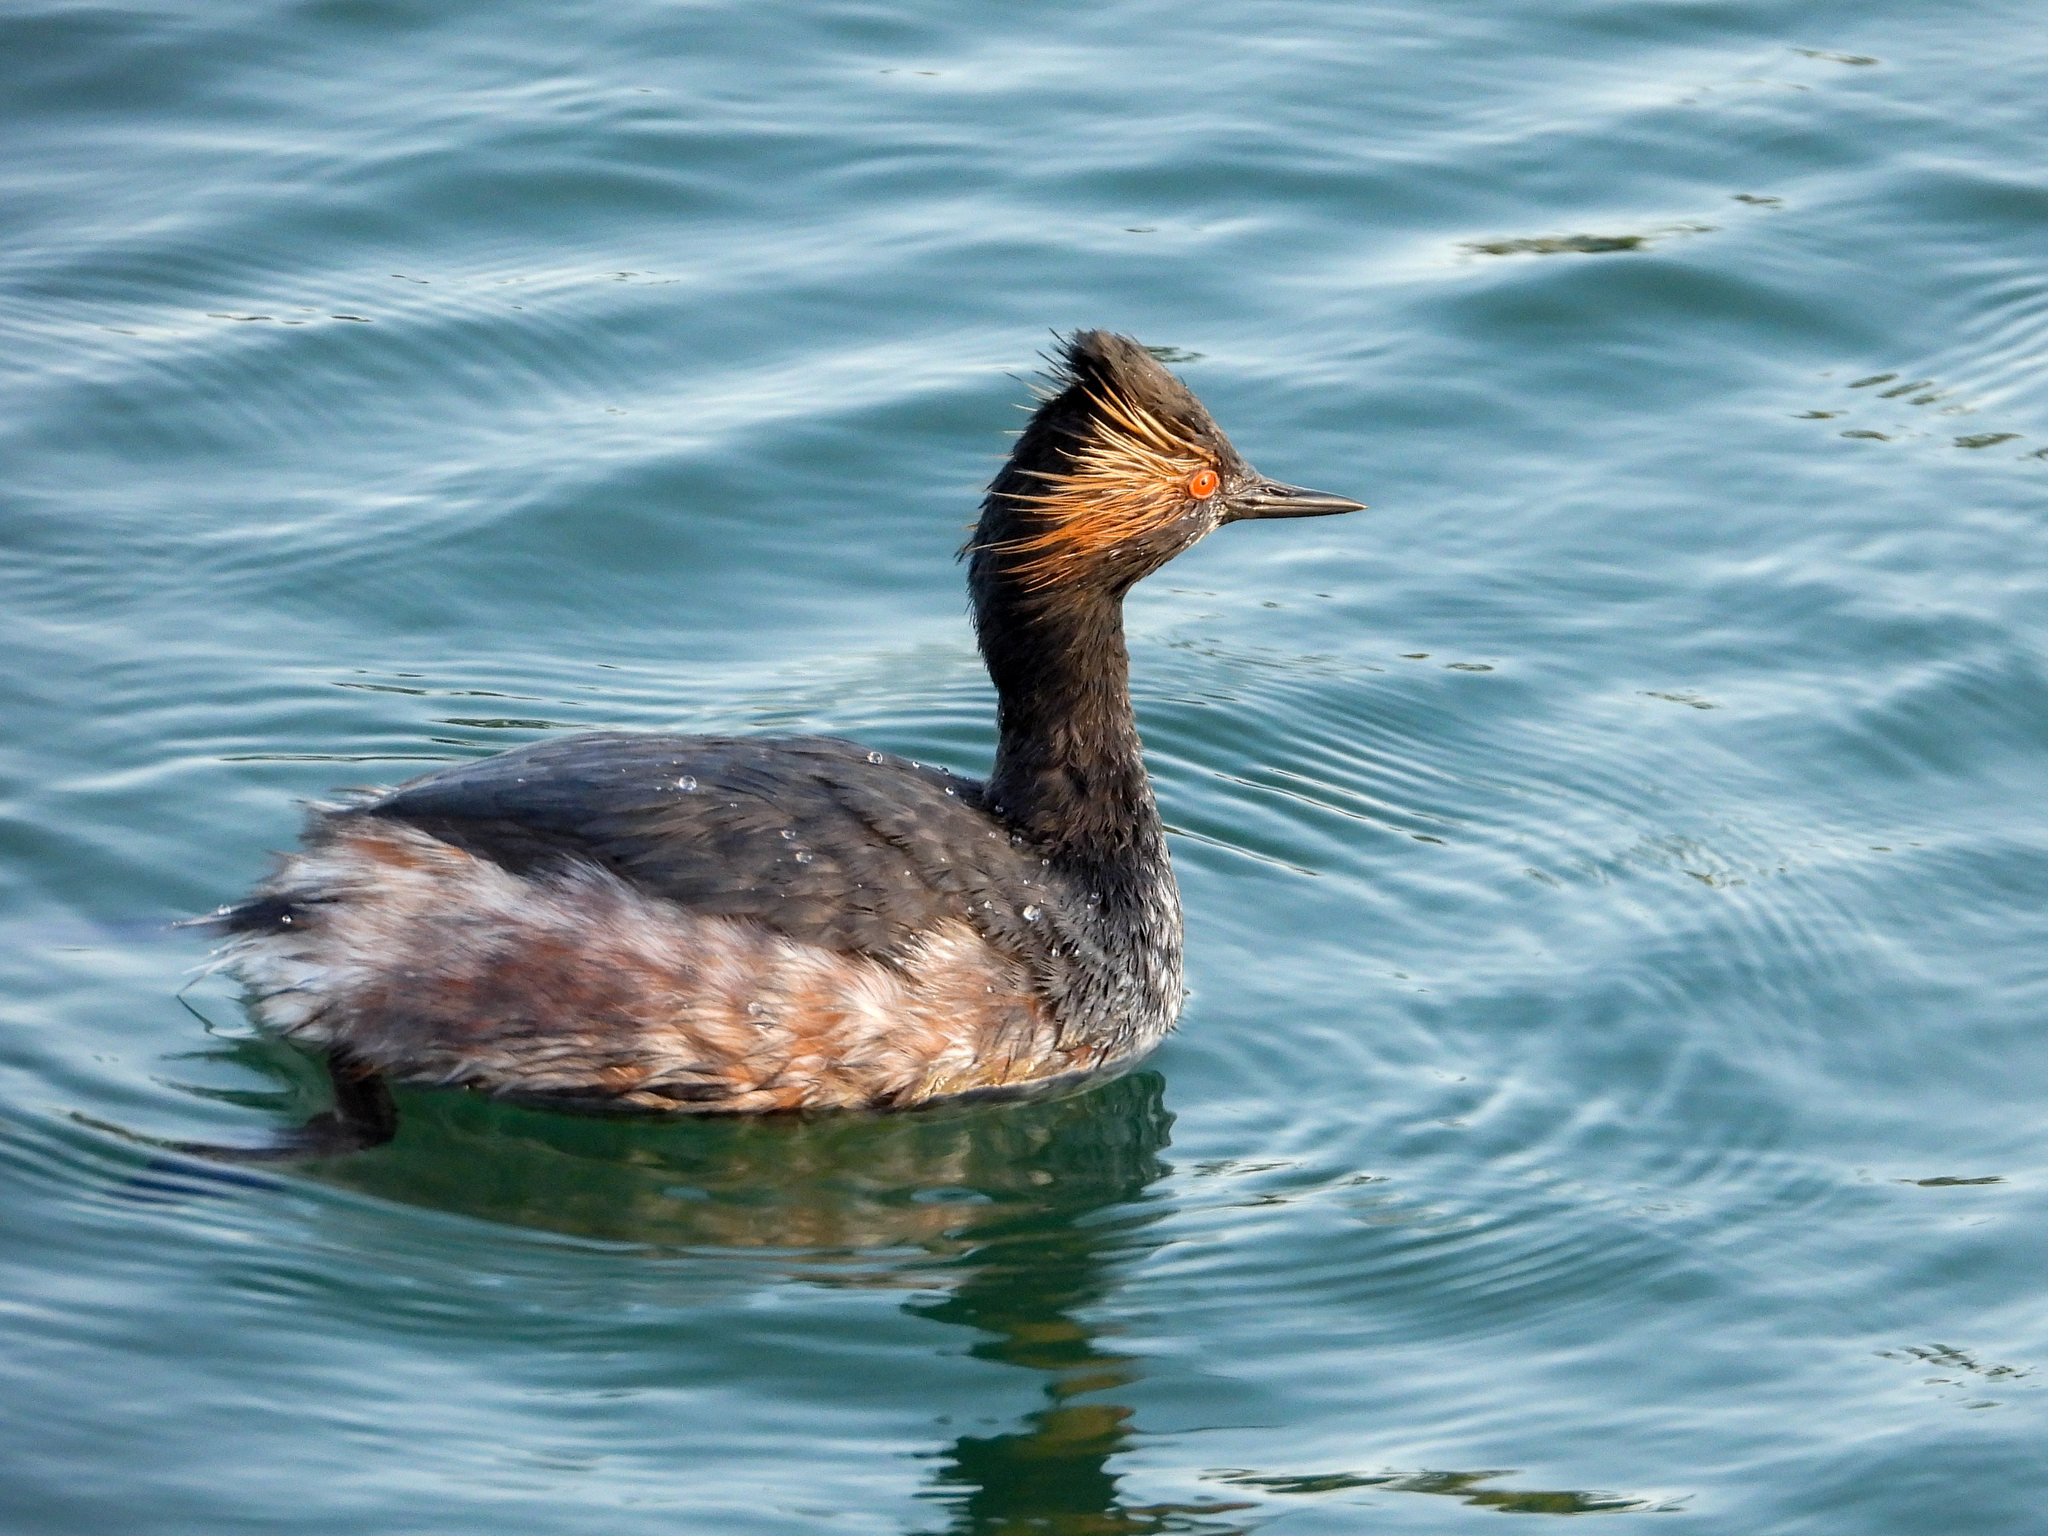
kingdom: Animalia
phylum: Chordata
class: Aves
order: Podicipediformes
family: Podicipedidae
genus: Podiceps
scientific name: Podiceps nigricollis
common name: Black-necked grebe
